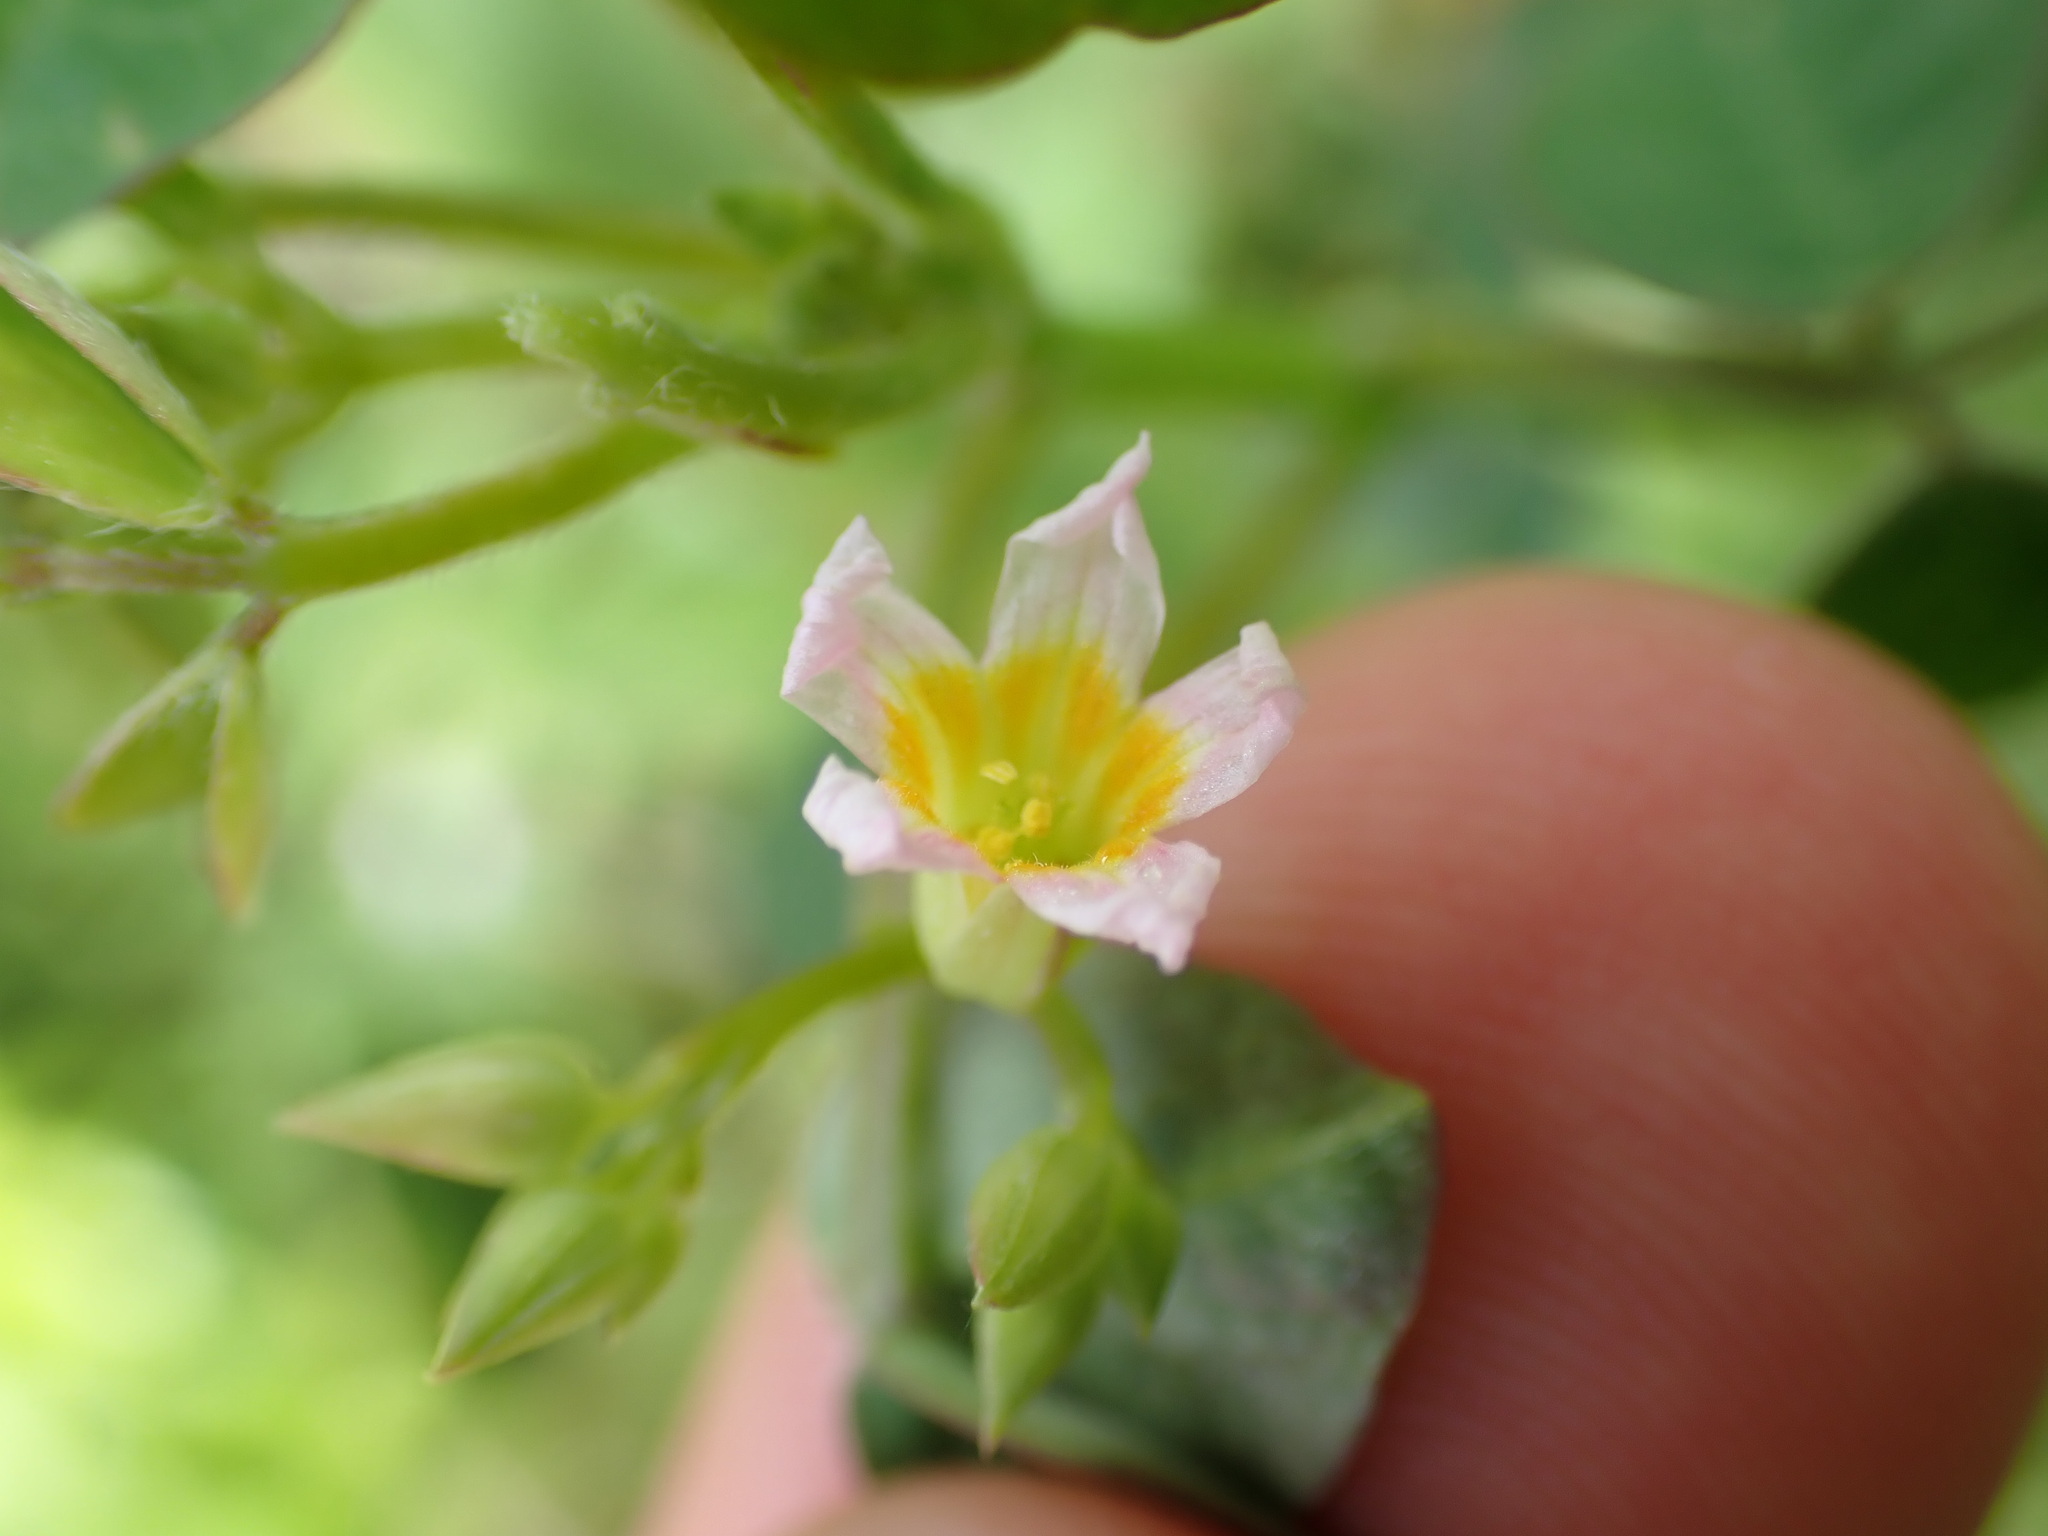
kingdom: Plantae
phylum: Tracheophyta
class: Magnoliopsida
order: Oxalidales
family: Oxalidaceae
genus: Oxalis
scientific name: Oxalis barrelieri
